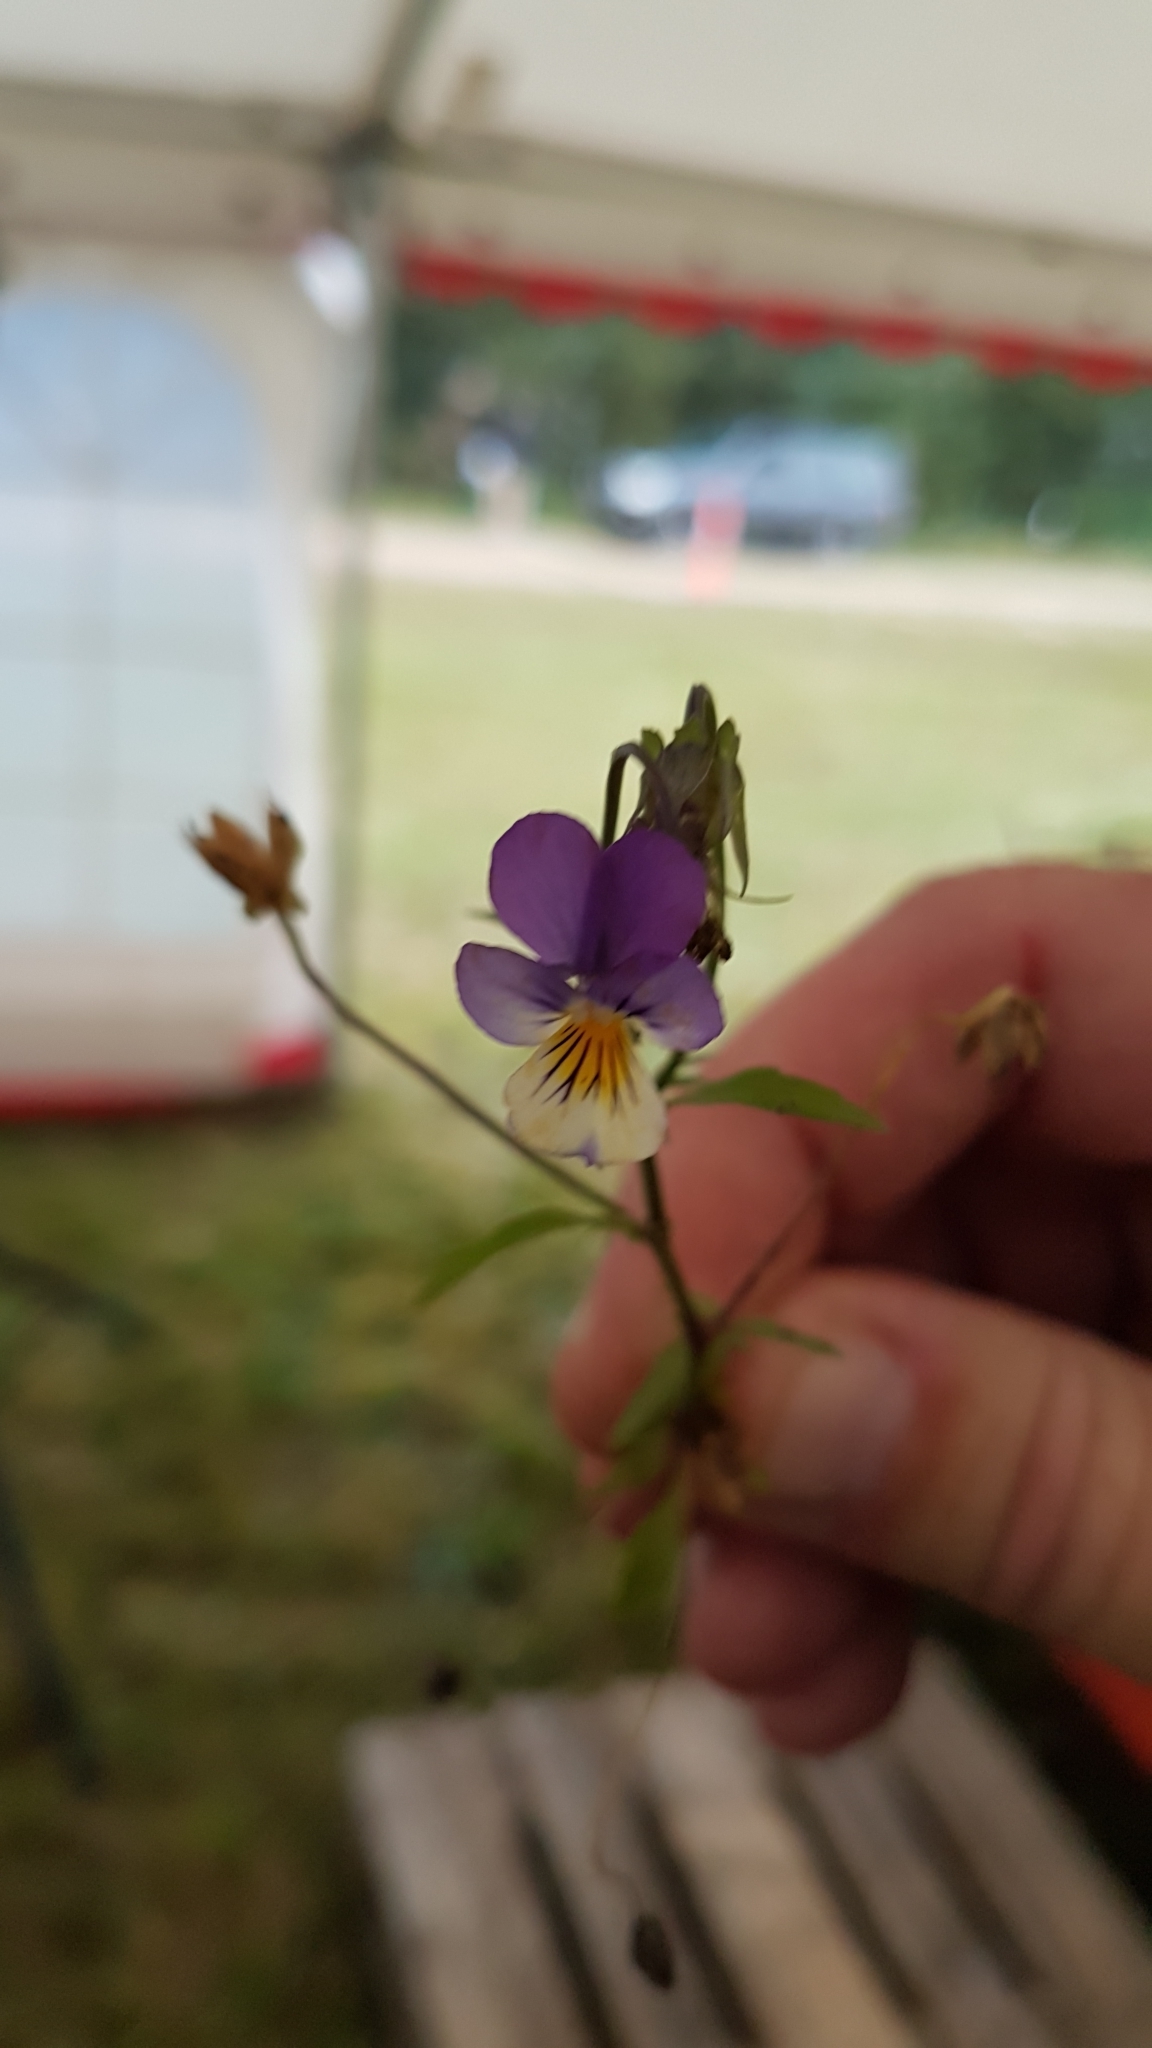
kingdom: Plantae
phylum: Tracheophyta
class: Magnoliopsida
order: Malpighiales
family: Violaceae
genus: Viola
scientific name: Viola tricolor
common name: Pansy
